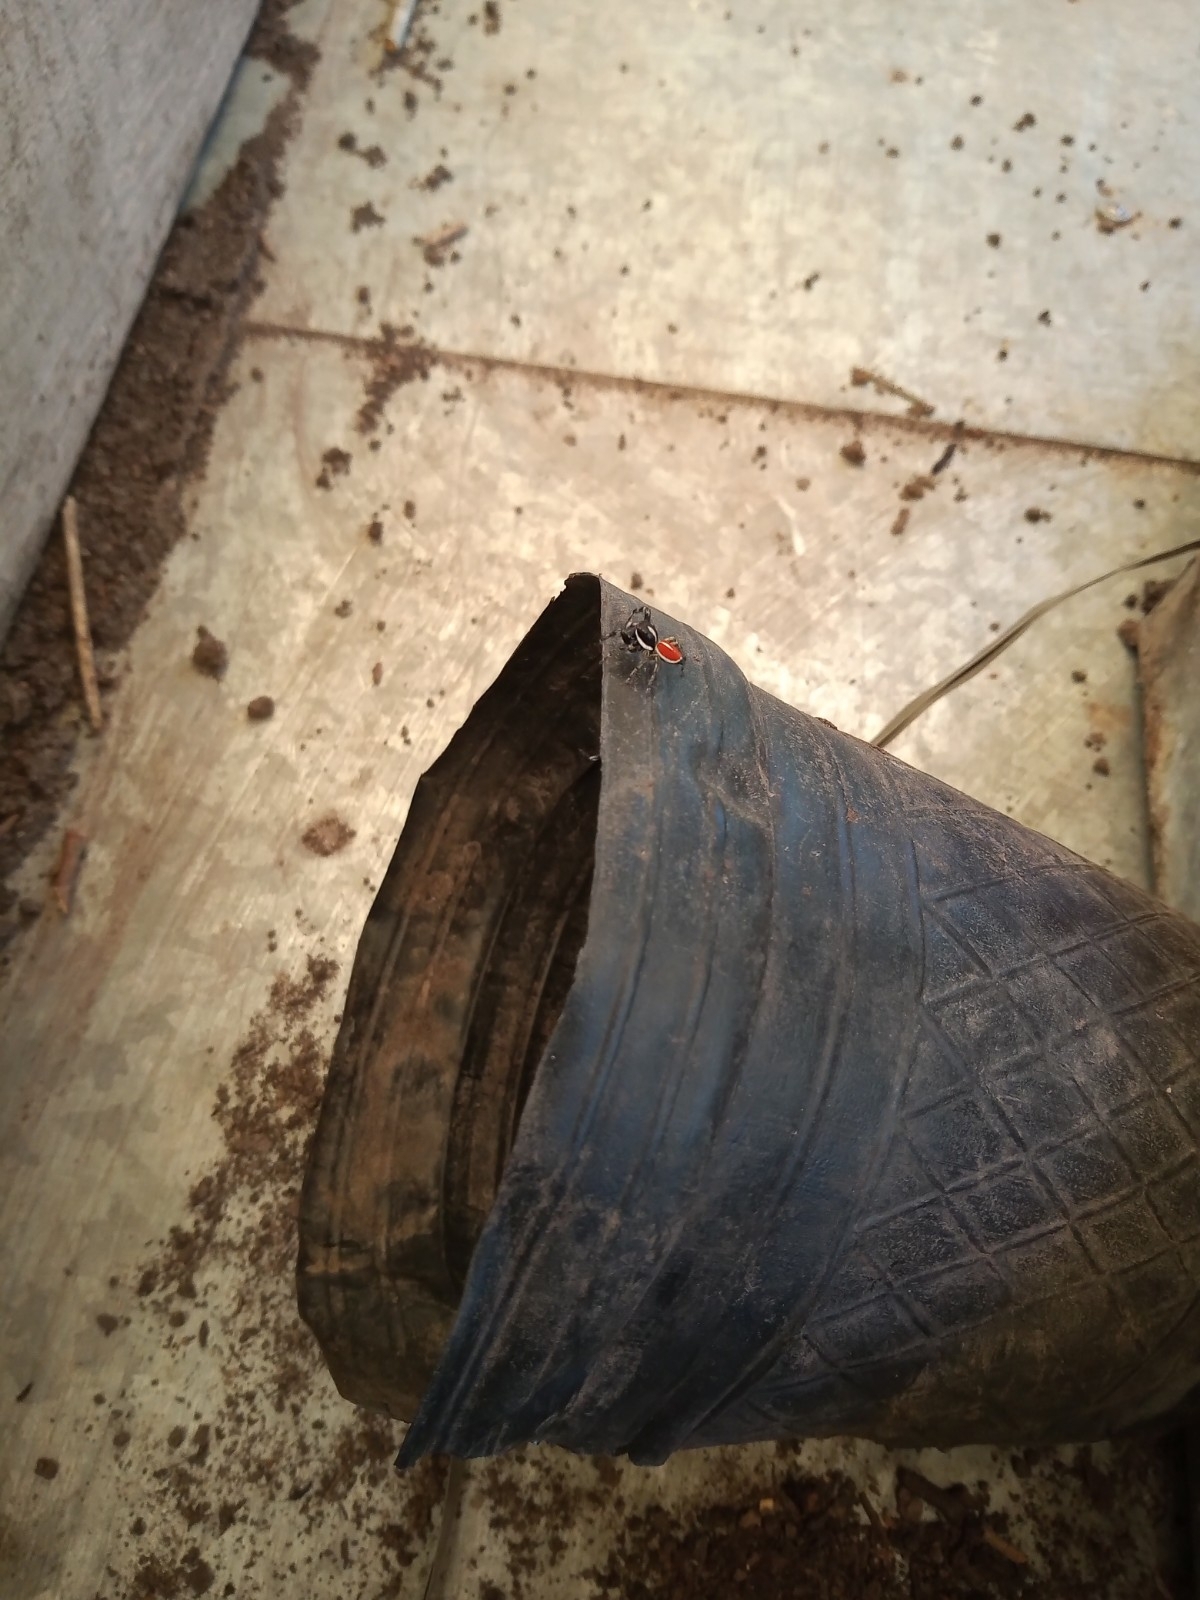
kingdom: Animalia
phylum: Arthropoda
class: Arachnida
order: Araneae
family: Salticidae
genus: Phiale
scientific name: Phiale roburifoliata
